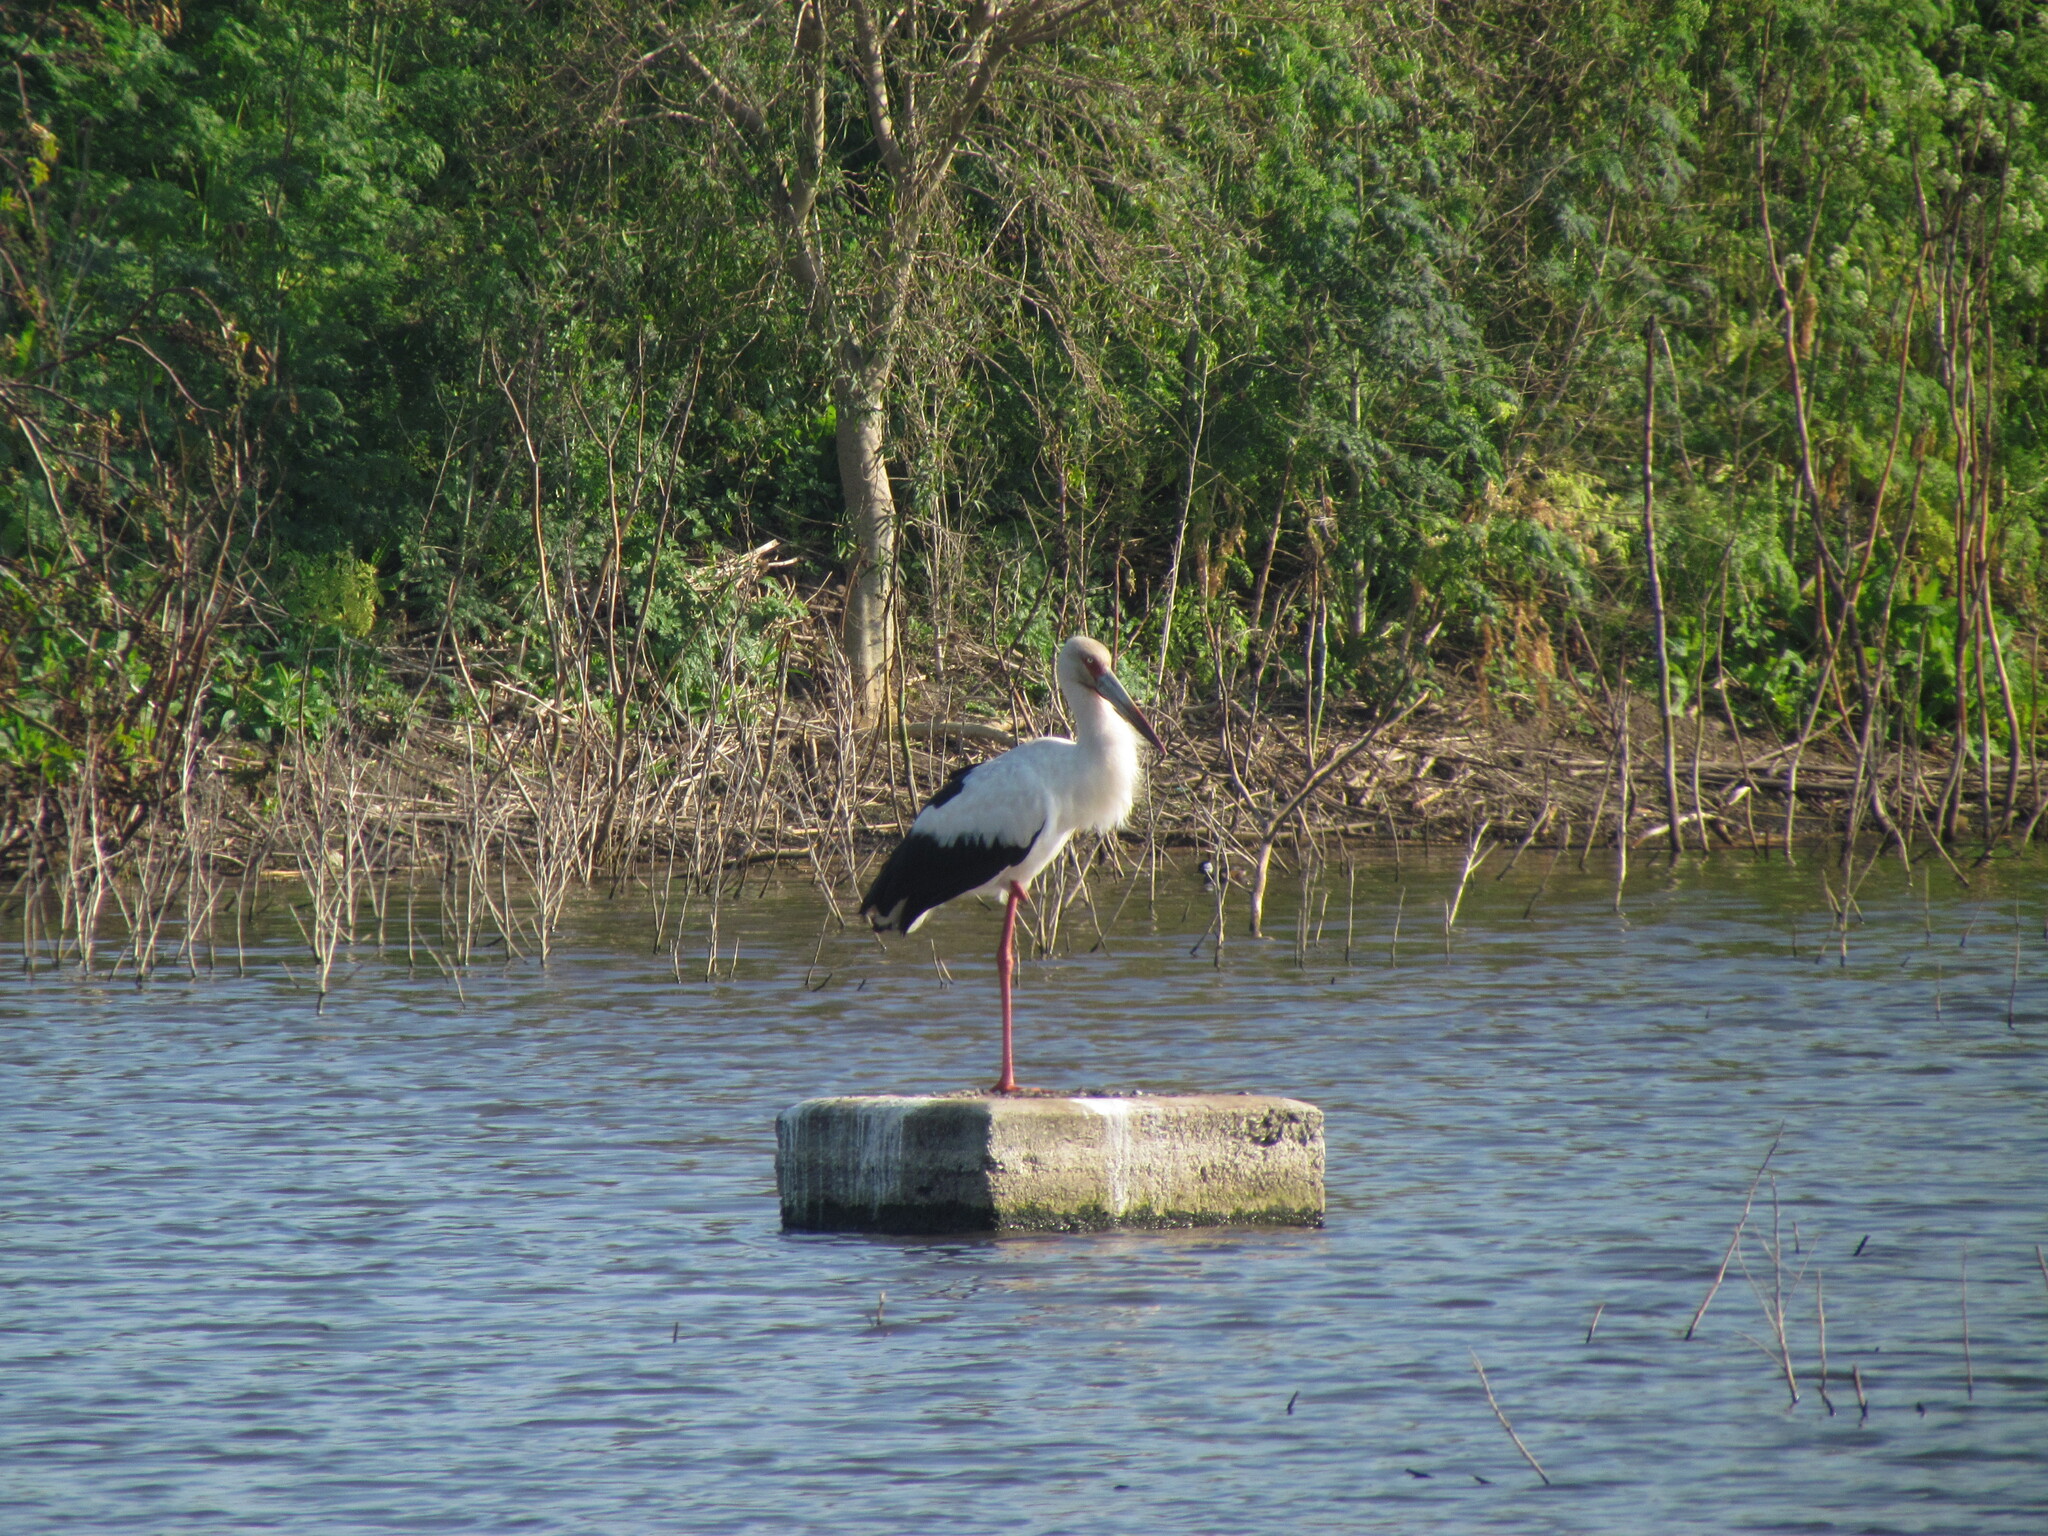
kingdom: Animalia
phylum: Chordata
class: Aves
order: Ciconiiformes
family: Ciconiidae
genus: Ciconia
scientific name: Ciconia maguari
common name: Maguari stork
